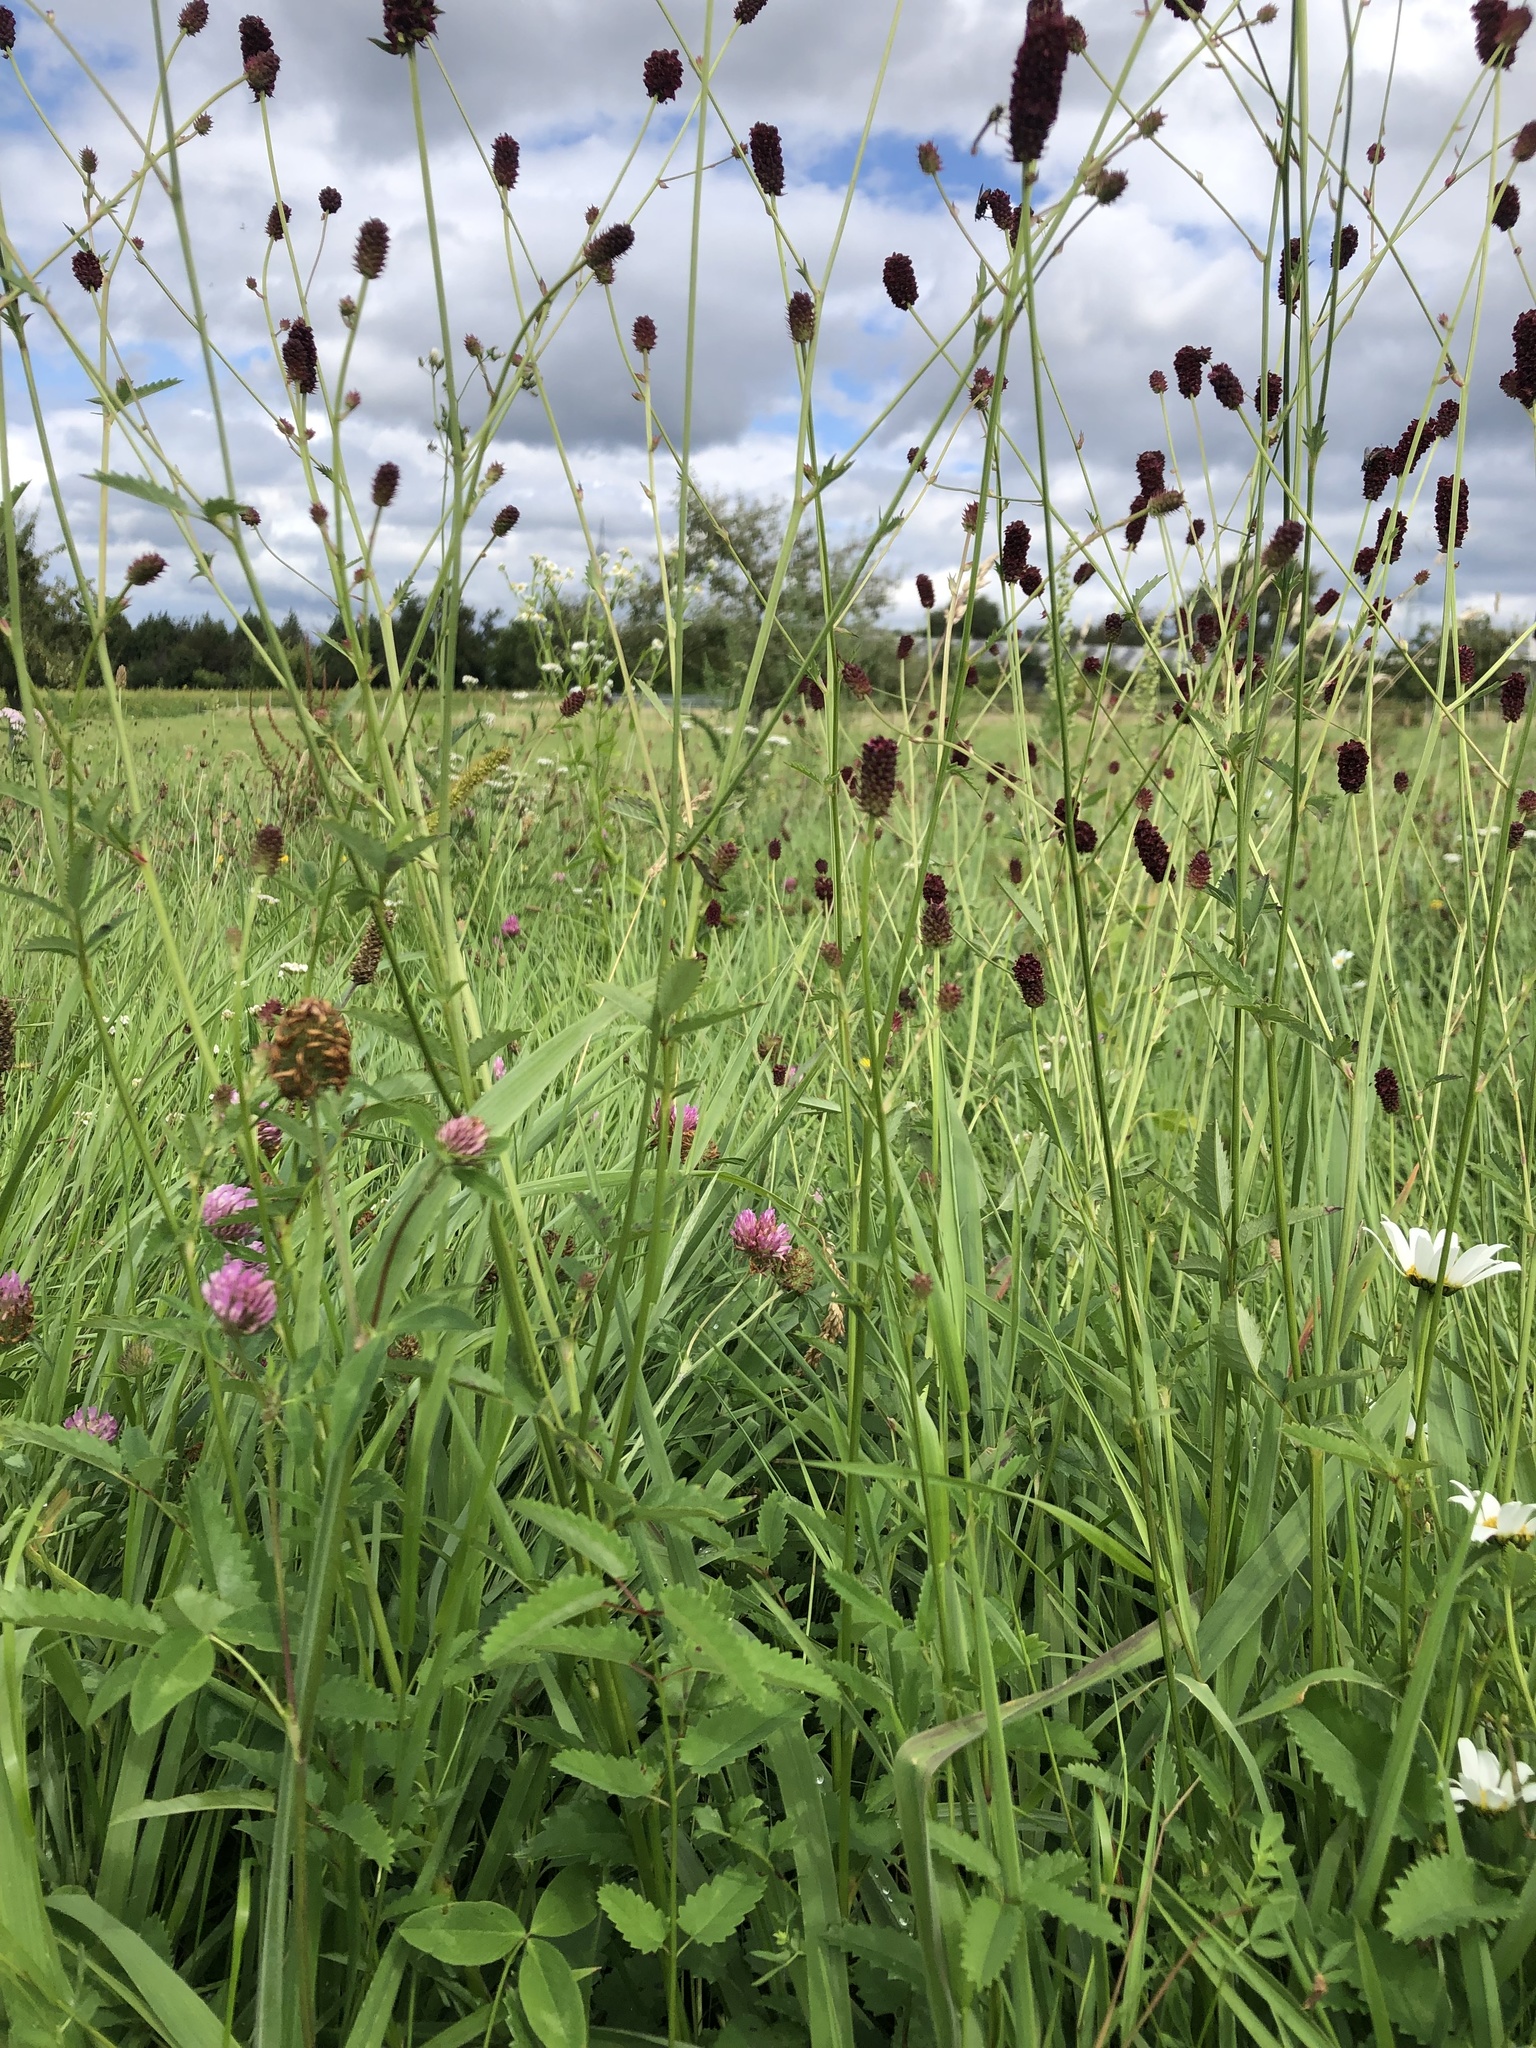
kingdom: Plantae
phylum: Tracheophyta
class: Magnoliopsida
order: Rosales
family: Rosaceae
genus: Sanguisorba
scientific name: Sanguisorba officinalis
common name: Great burnet
